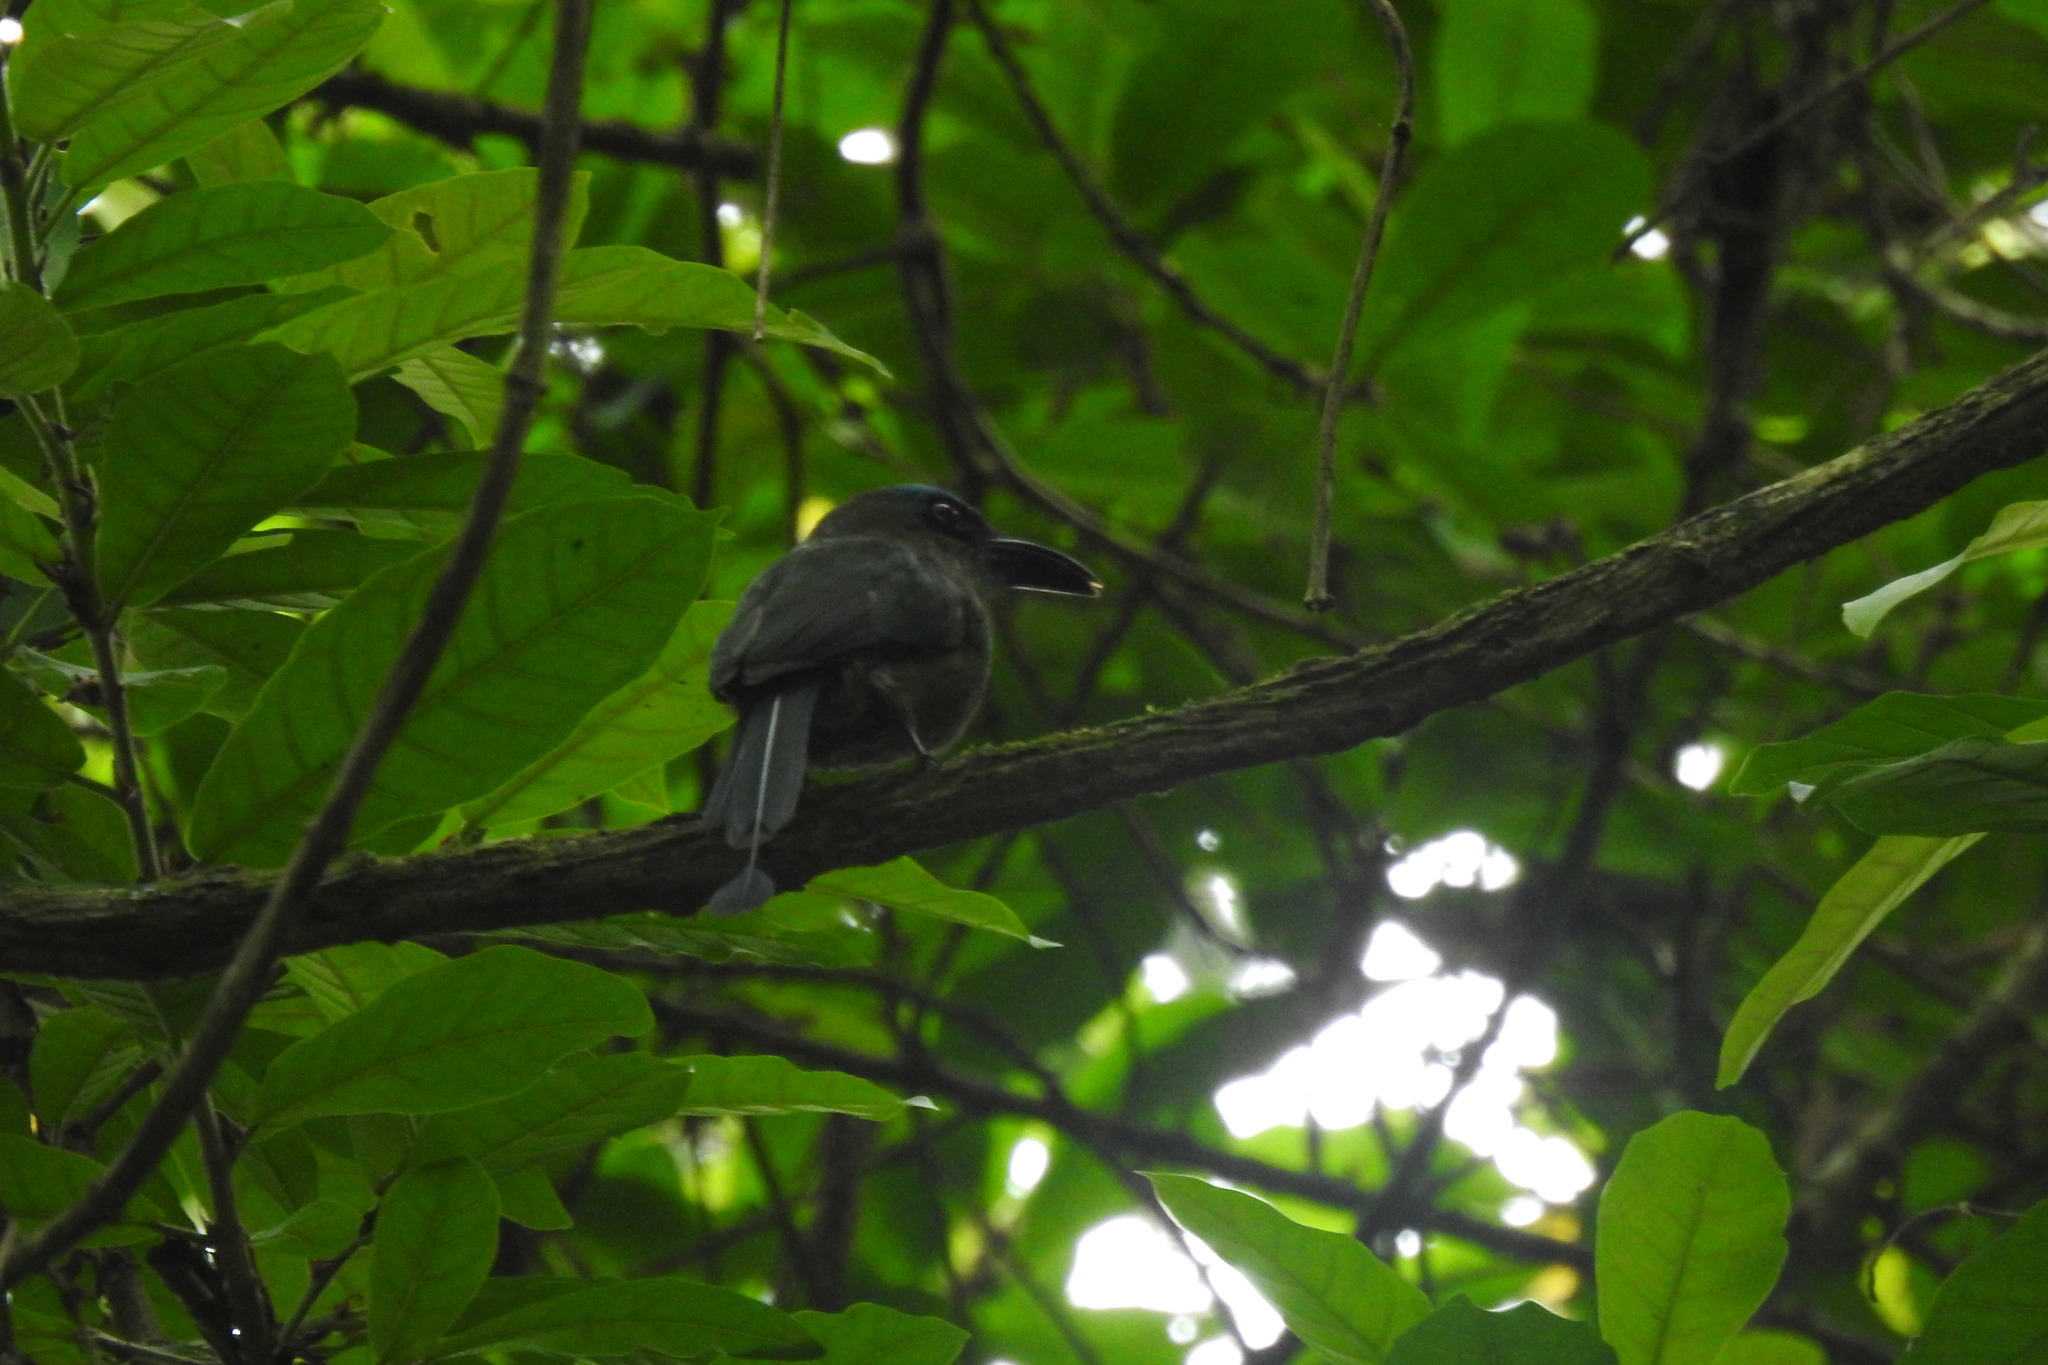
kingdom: Animalia
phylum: Chordata
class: Aves
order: Coraciiformes
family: Momotidae
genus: Electron
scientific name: Electron carinatum
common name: Keel-billed motmot
